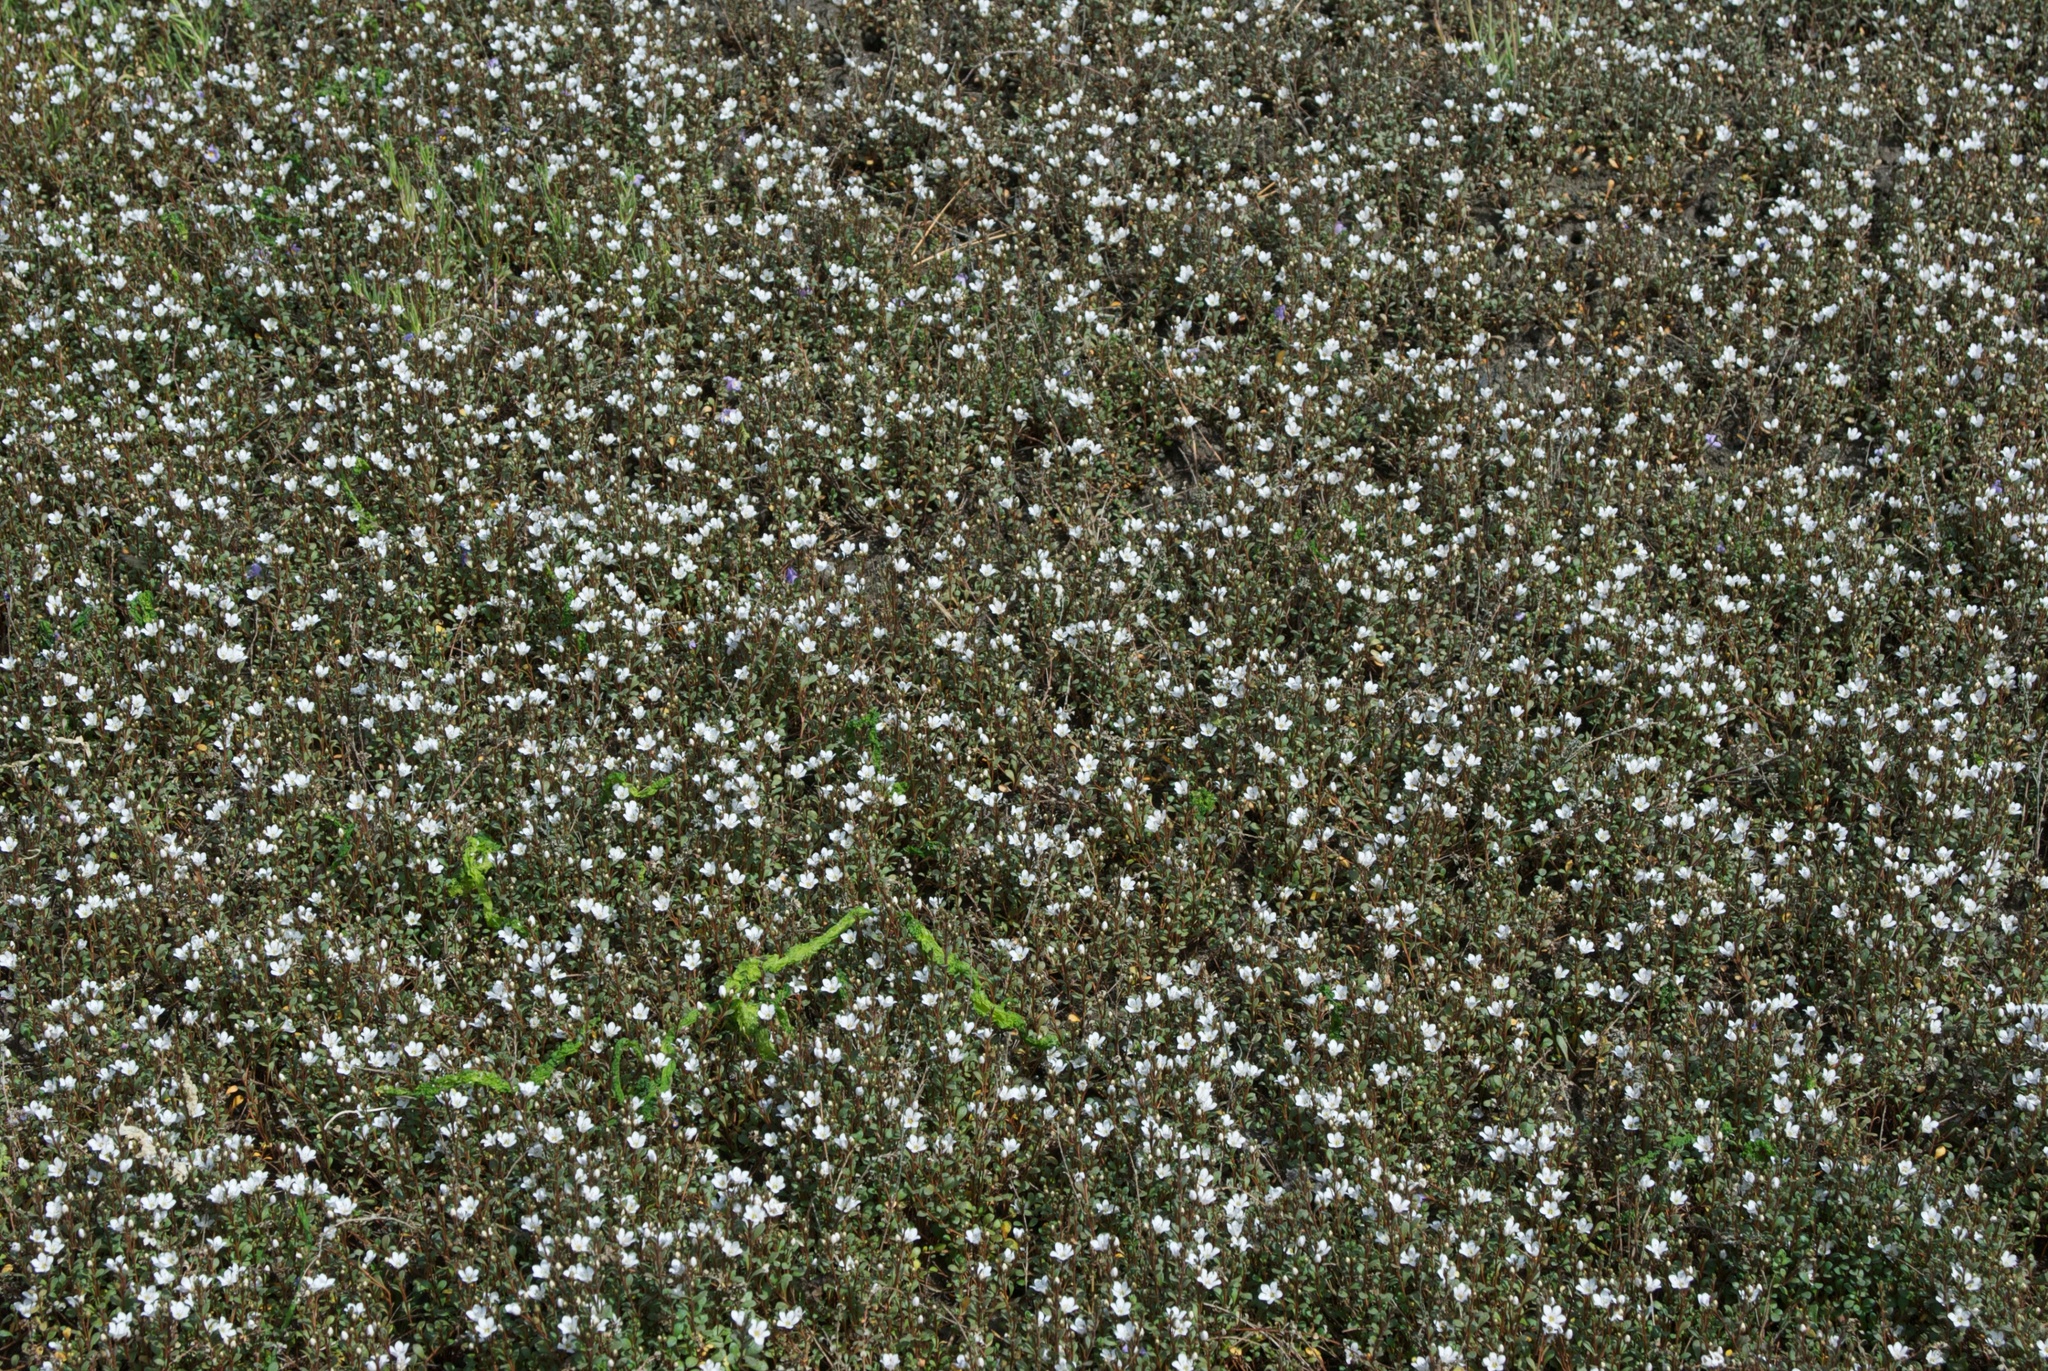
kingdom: Plantae
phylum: Tracheophyta
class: Magnoliopsida
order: Ericales
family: Primulaceae
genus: Samolus
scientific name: Samolus repens
